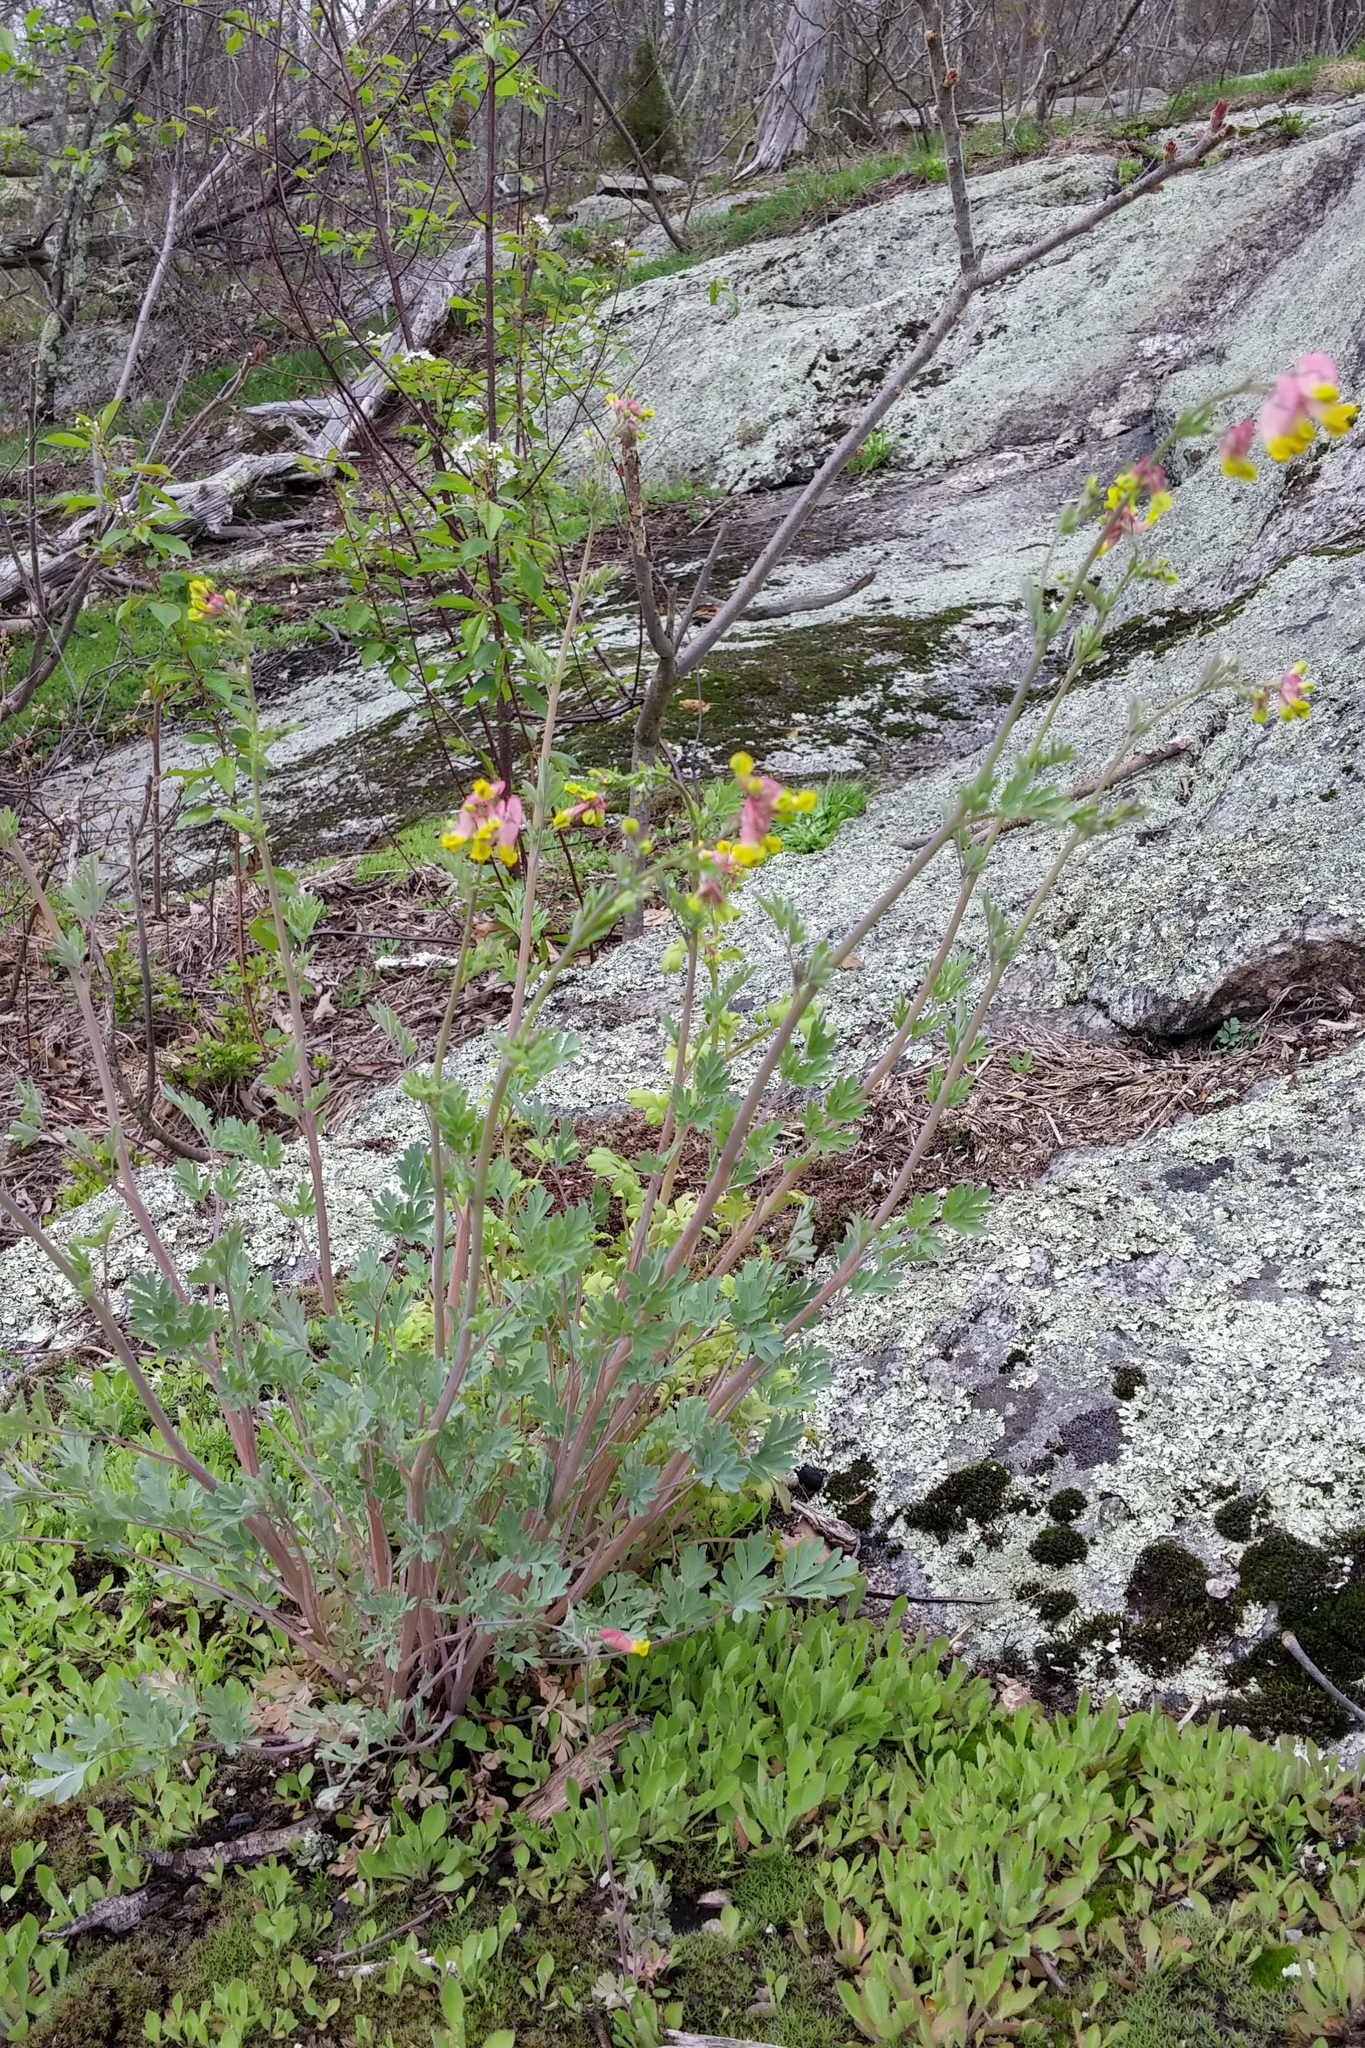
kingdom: Plantae
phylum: Tracheophyta
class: Magnoliopsida
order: Ranunculales
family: Papaveraceae
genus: Capnoides
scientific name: Capnoides sempervirens
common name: Rock harlequin
